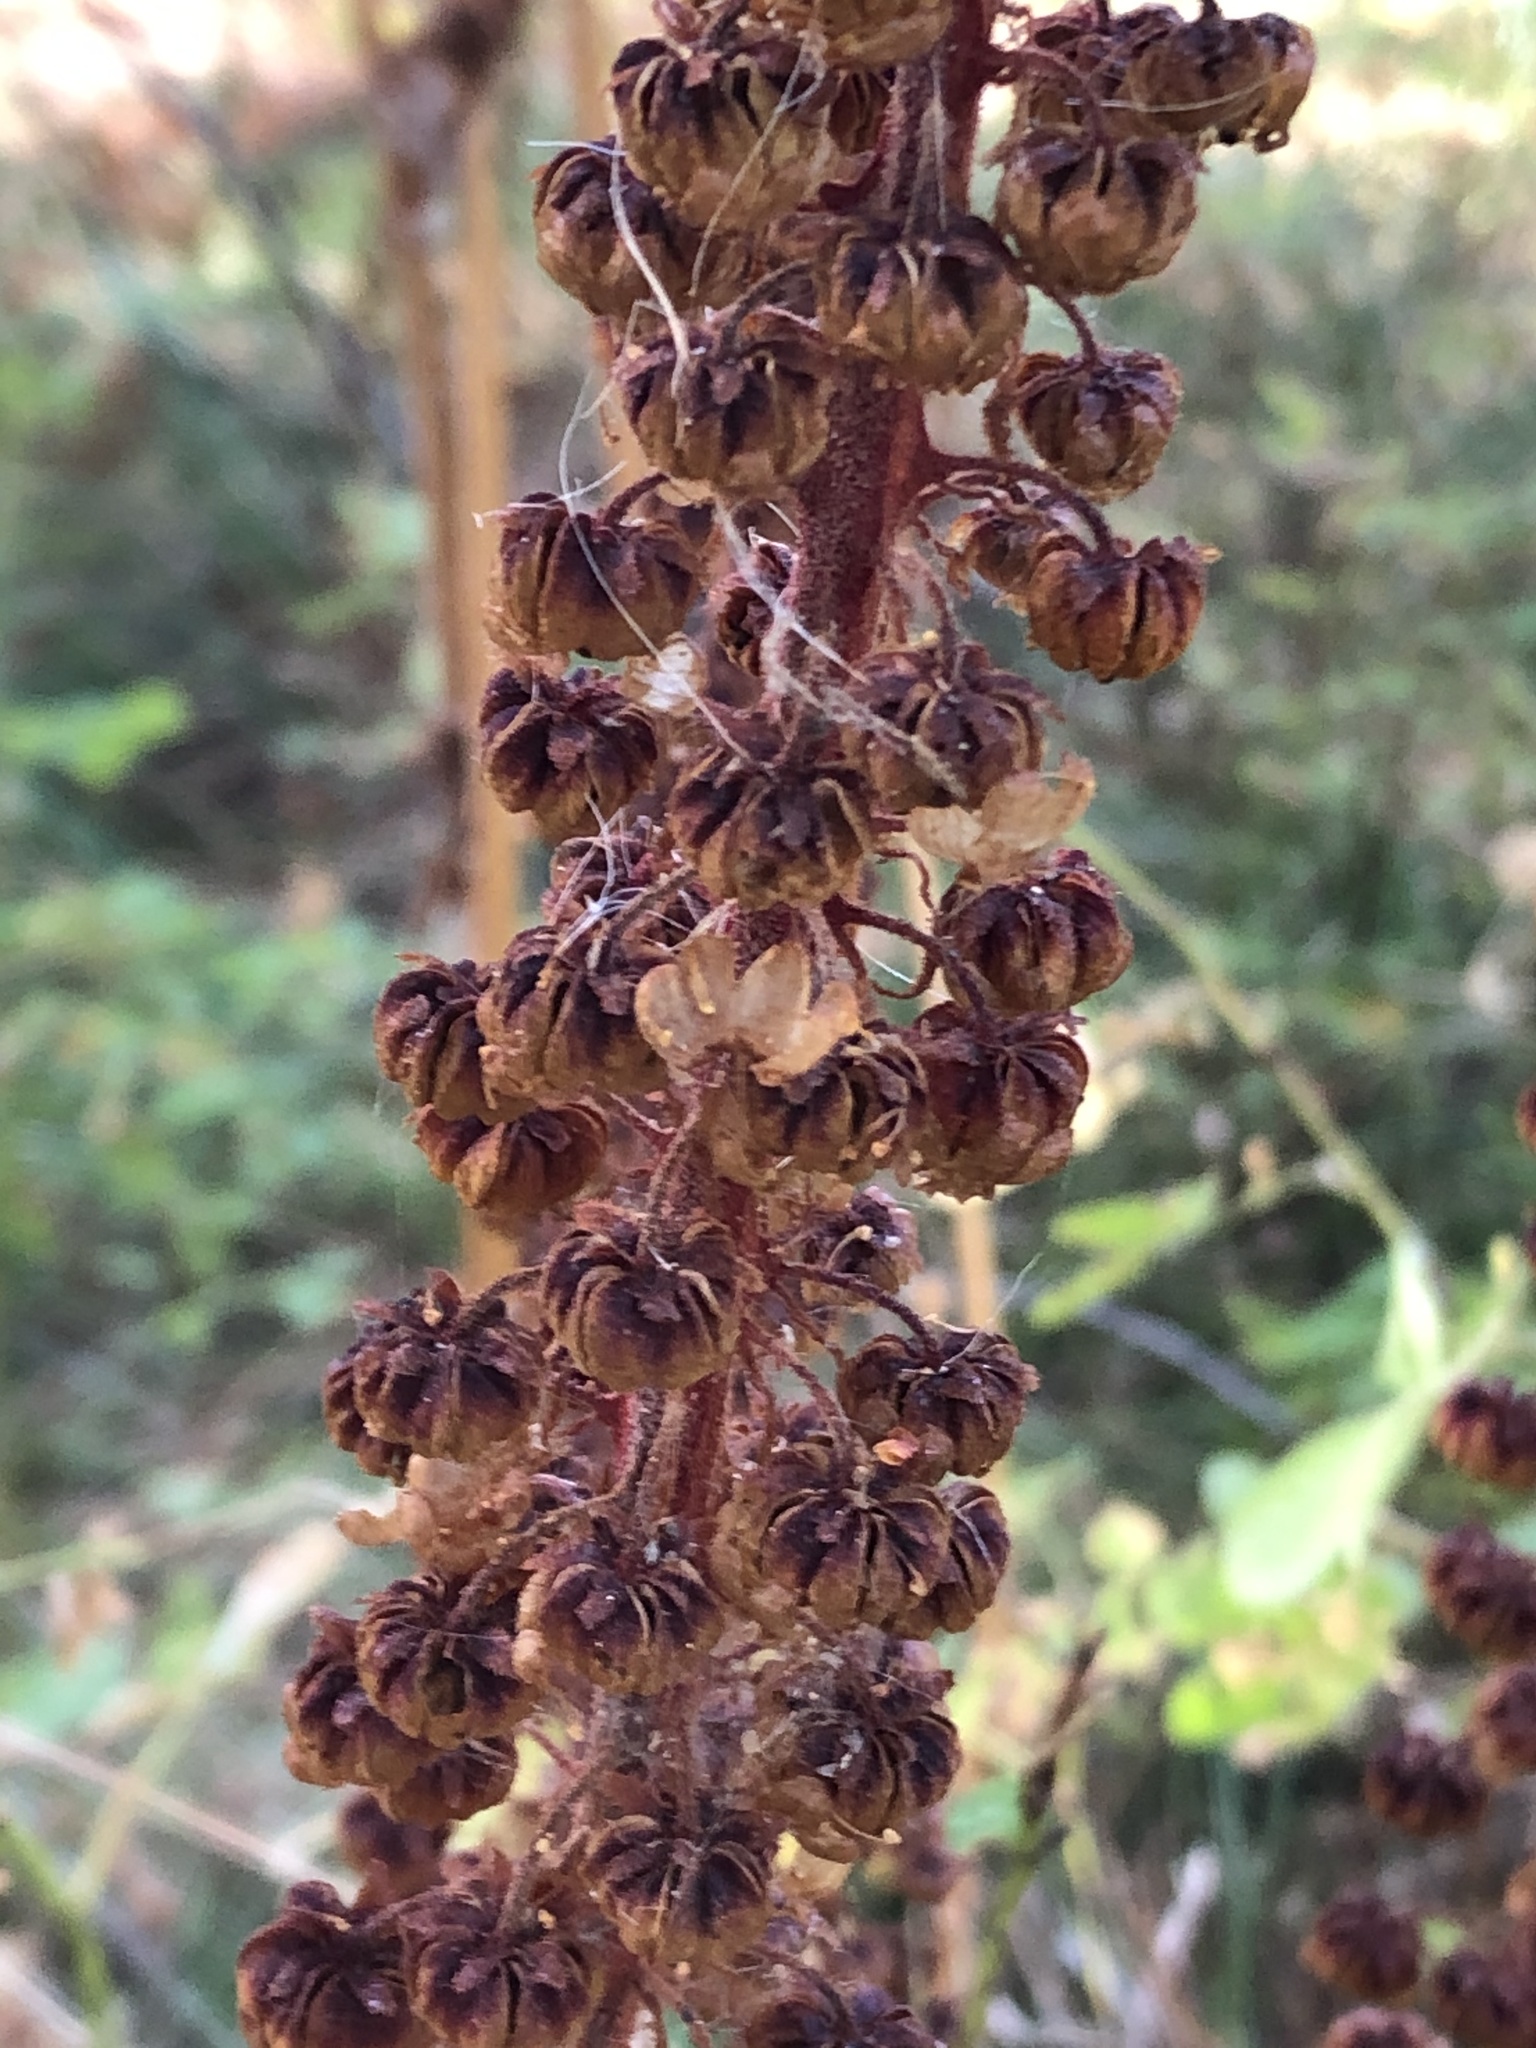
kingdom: Plantae
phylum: Tracheophyta
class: Magnoliopsida
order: Ericales
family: Ericaceae
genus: Pterospora
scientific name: Pterospora andromedea
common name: Giant bird's-nest
